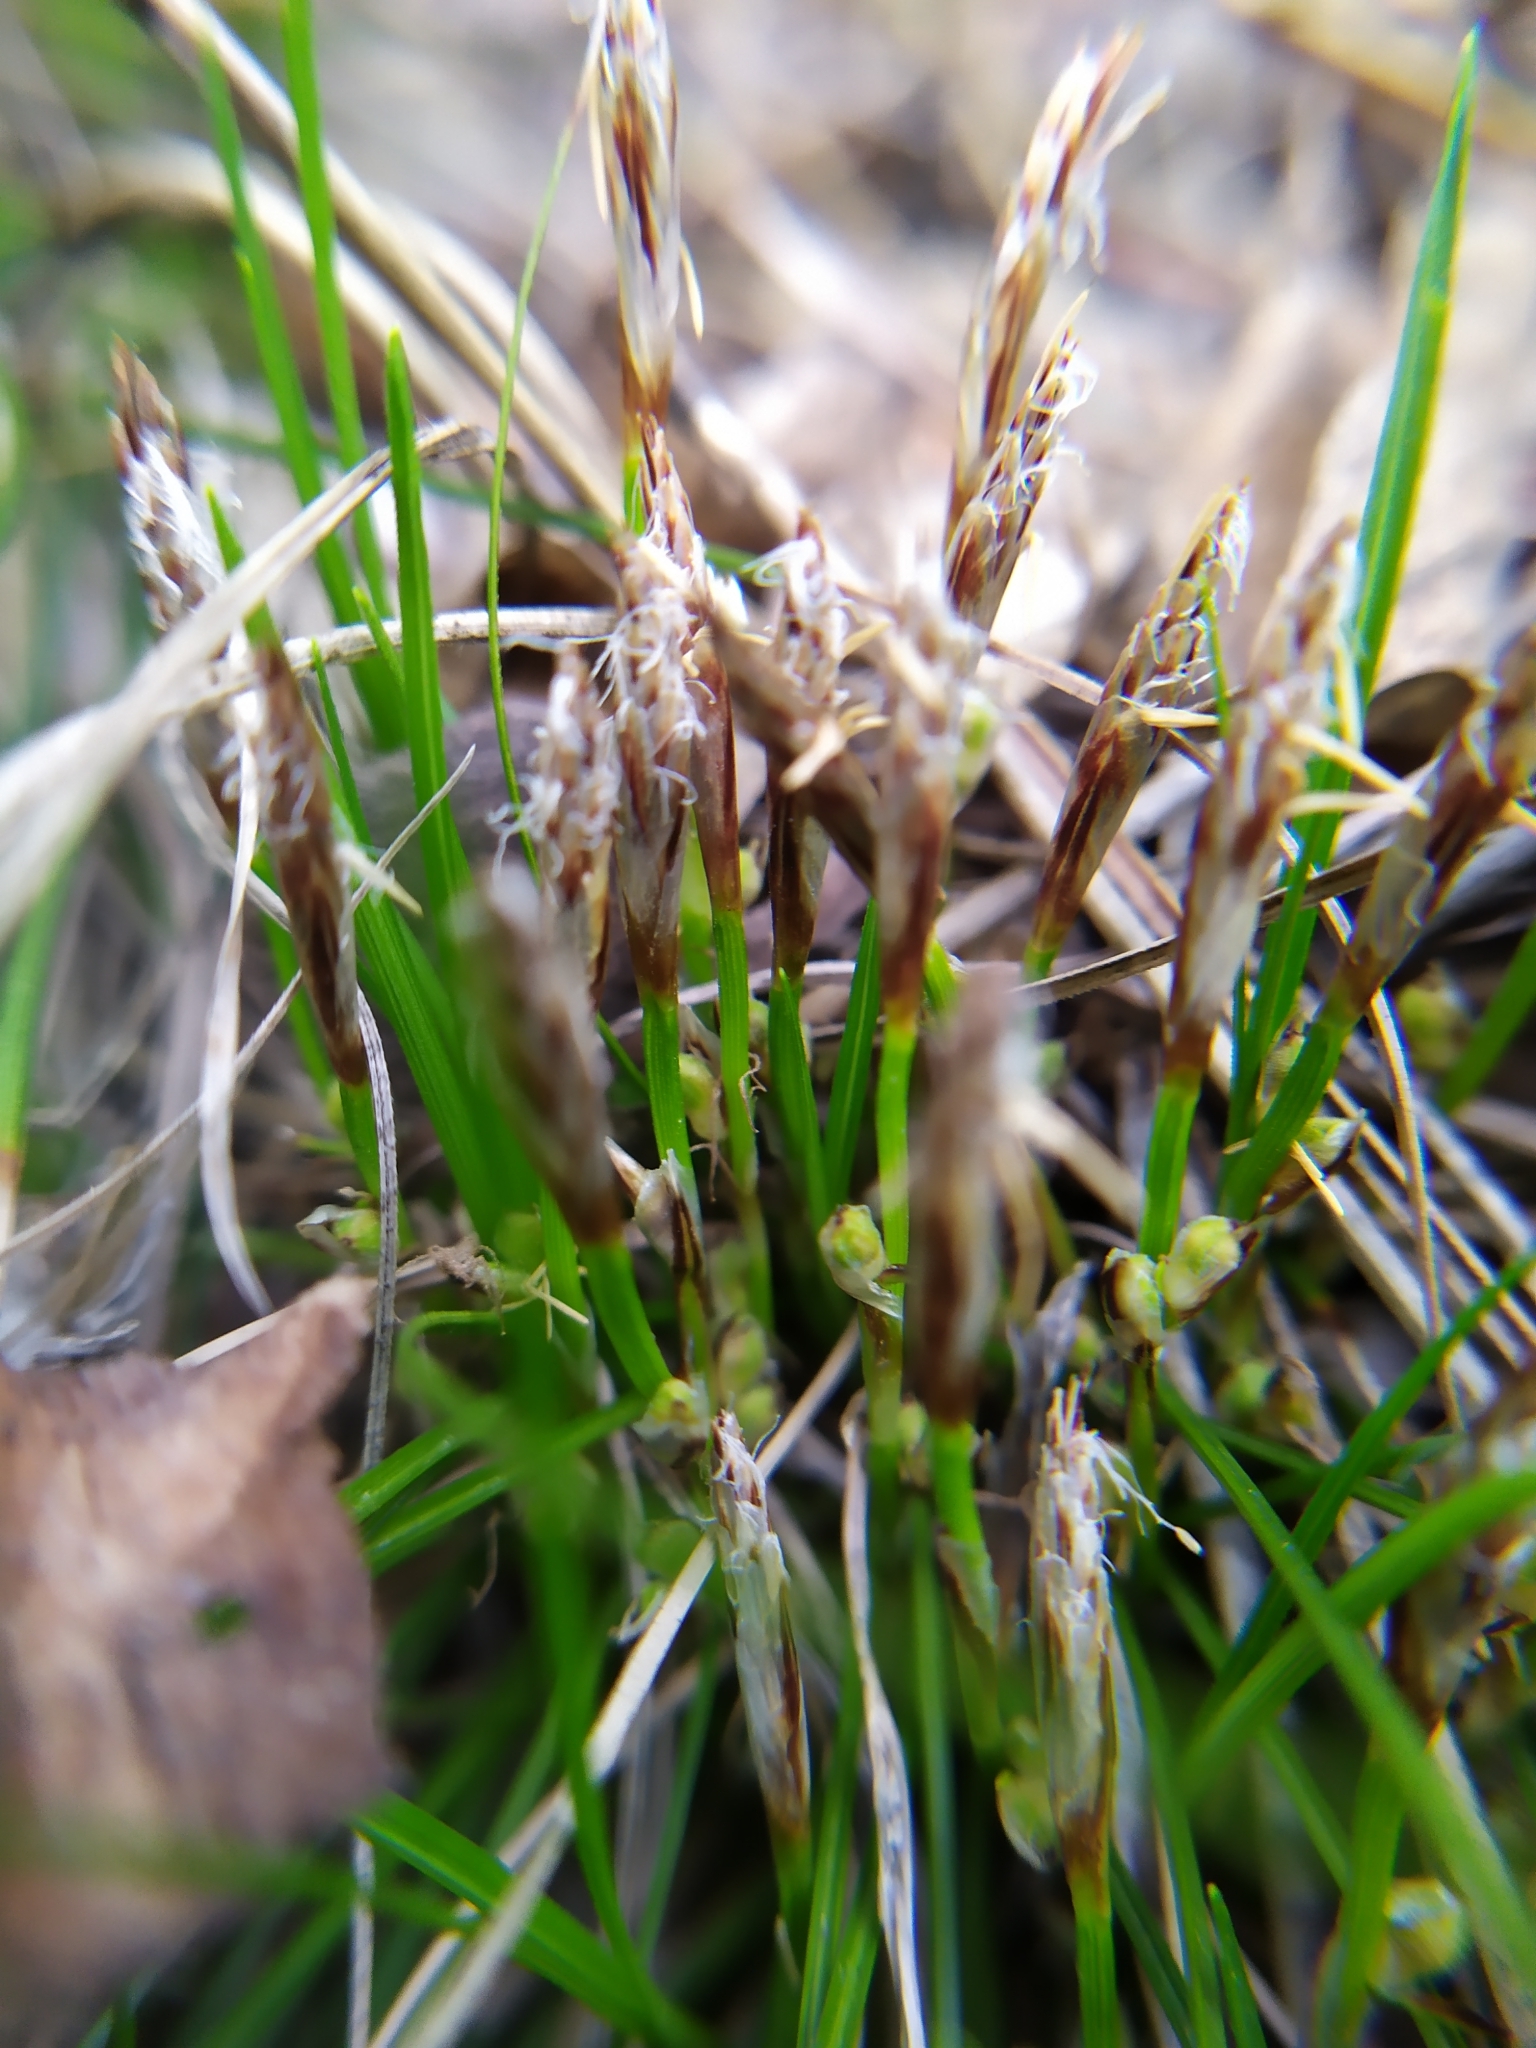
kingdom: Plantae
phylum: Tracheophyta
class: Liliopsida
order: Poales
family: Cyperaceae
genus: Carex
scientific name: Carex humilis
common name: Dwarf sedge
